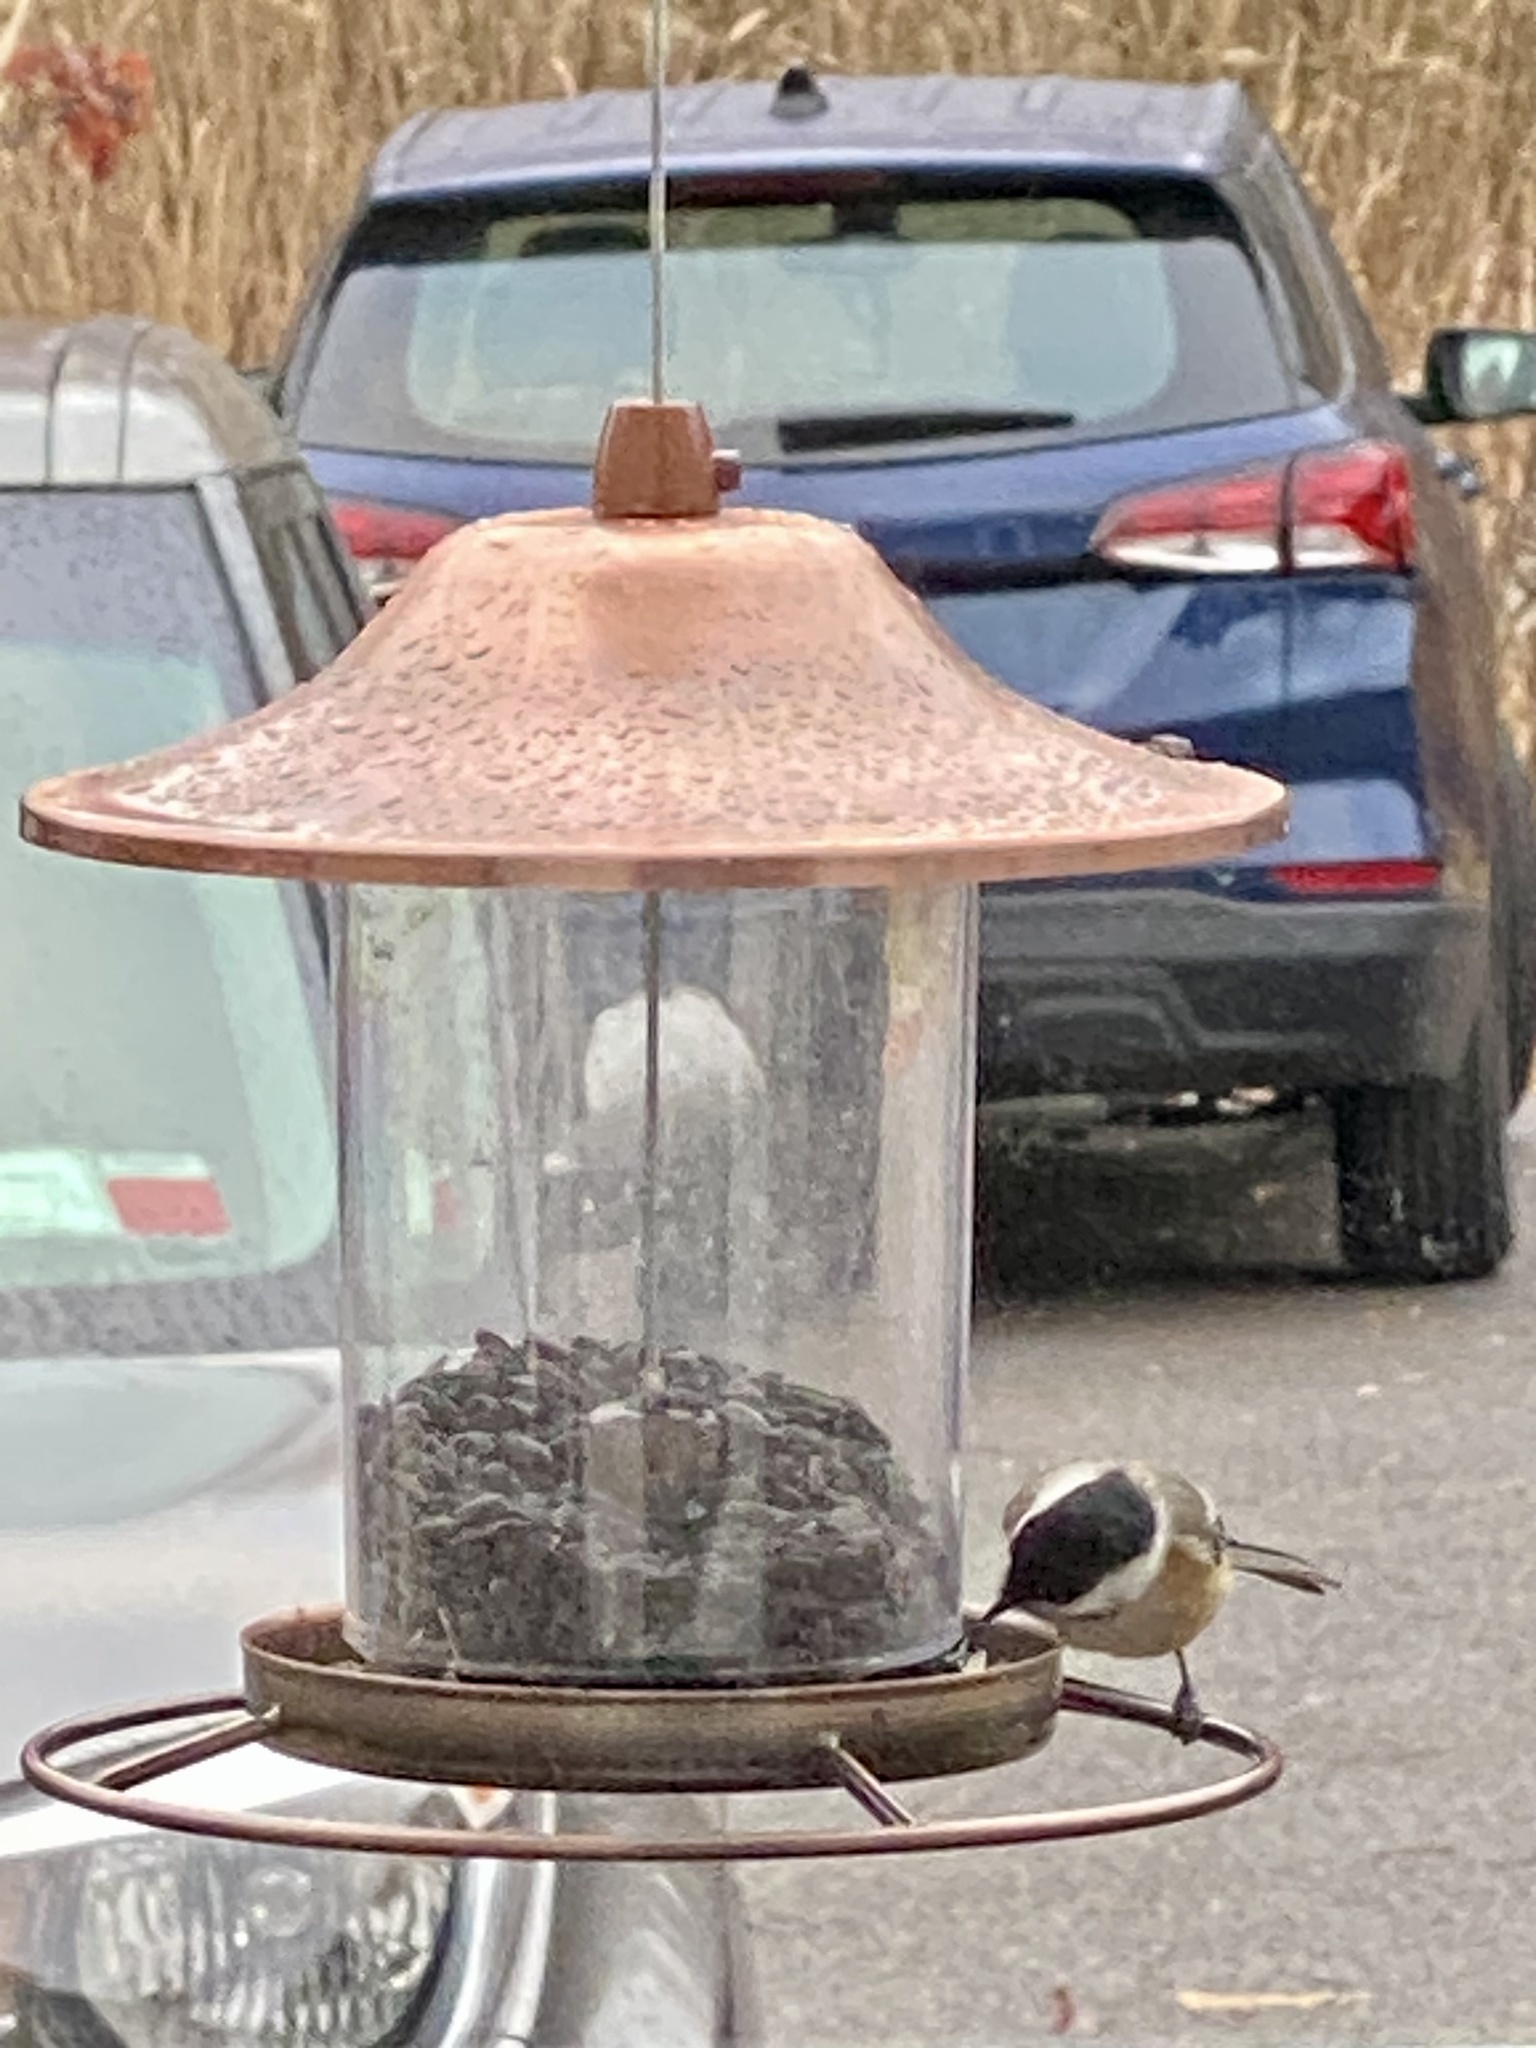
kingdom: Animalia
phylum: Chordata
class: Aves
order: Passeriformes
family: Paridae
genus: Poecile
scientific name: Poecile atricapillus
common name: Black-capped chickadee
